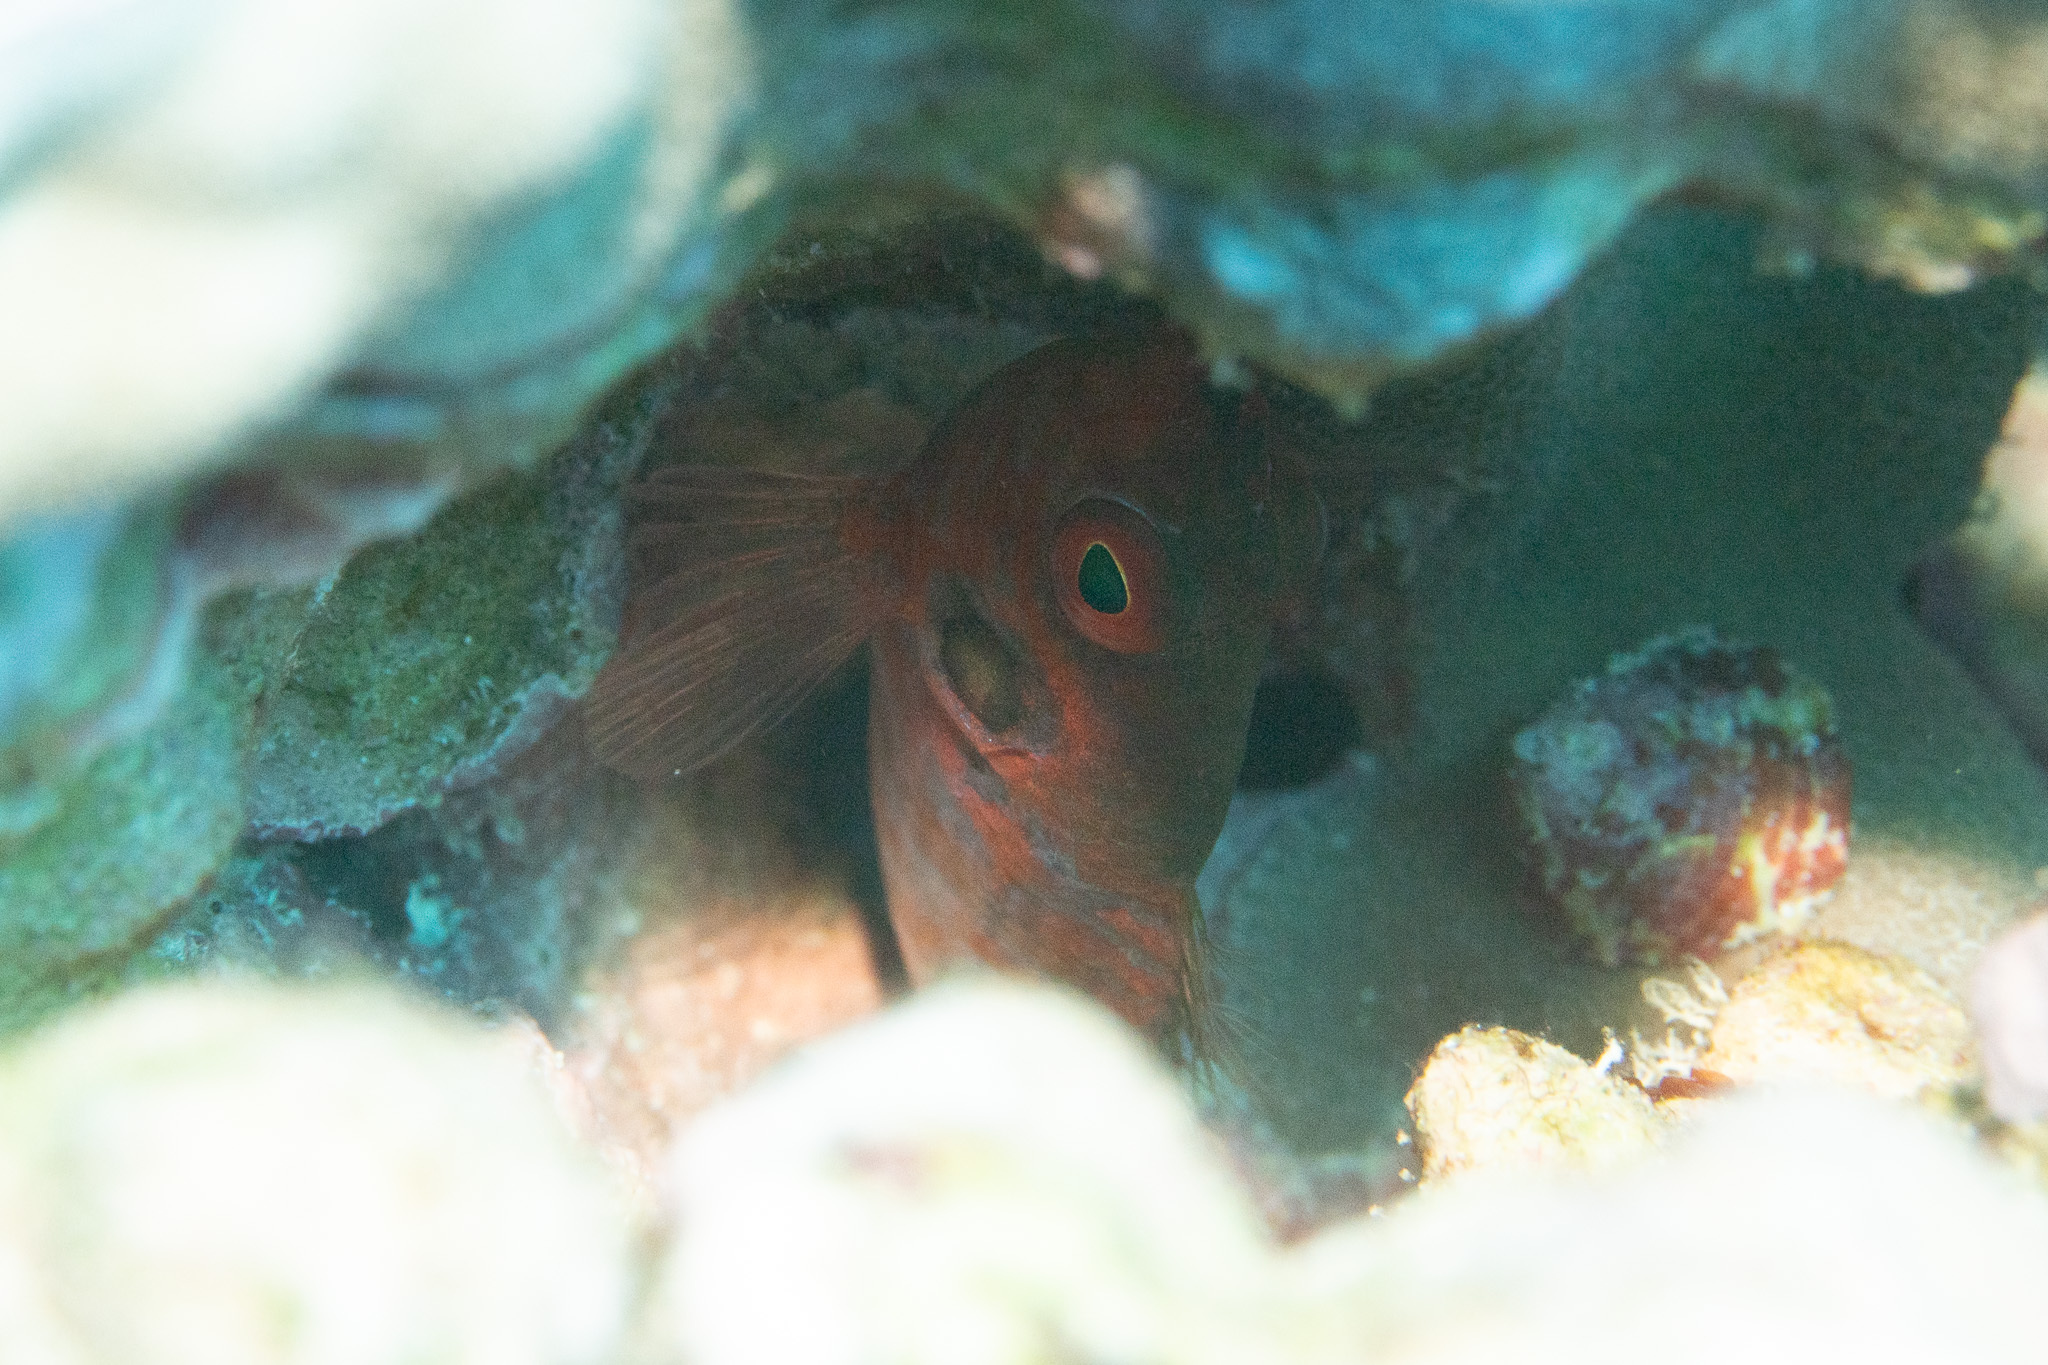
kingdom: Animalia
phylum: Chordata
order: Perciformes
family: Blenniidae
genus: Cirripectes
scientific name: Cirripectes vanderbilti
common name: Red-head blenny
